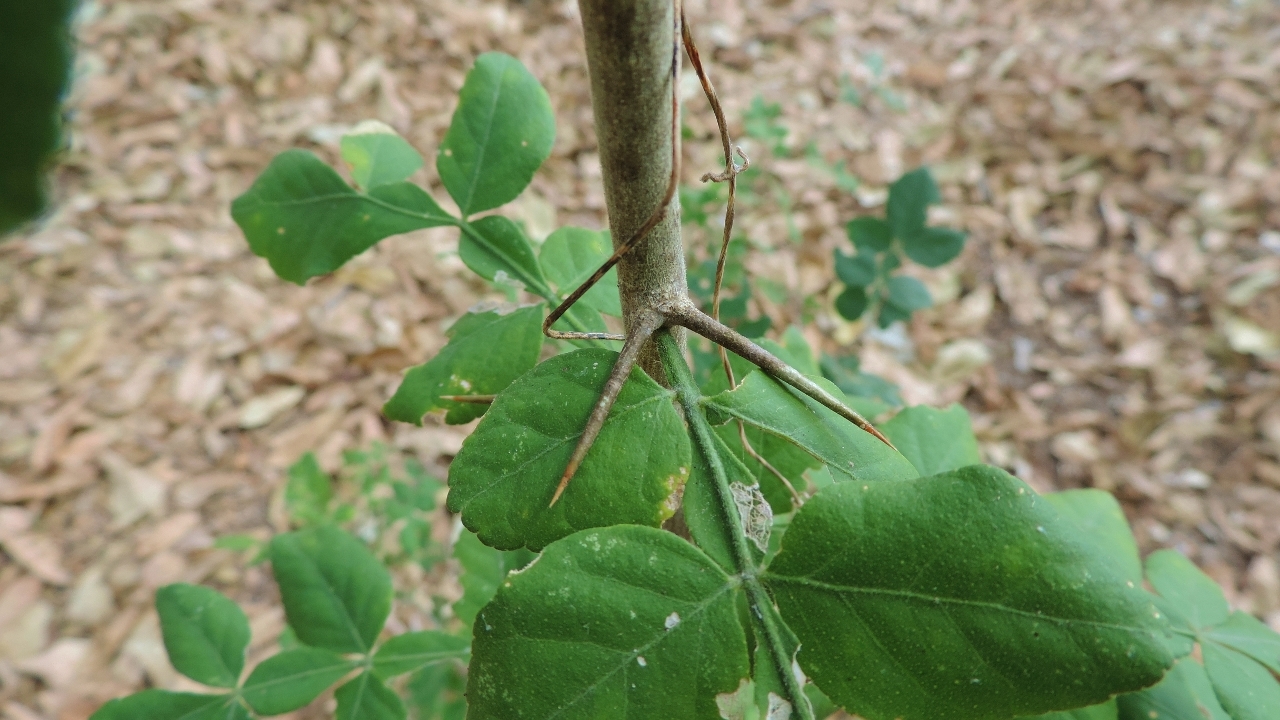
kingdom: Plantae
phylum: Tracheophyta
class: Magnoliopsida
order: Sapindales
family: Rutaceae
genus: Citropsis
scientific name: Citropsis daweana
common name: Mozambique-cherry-orange
